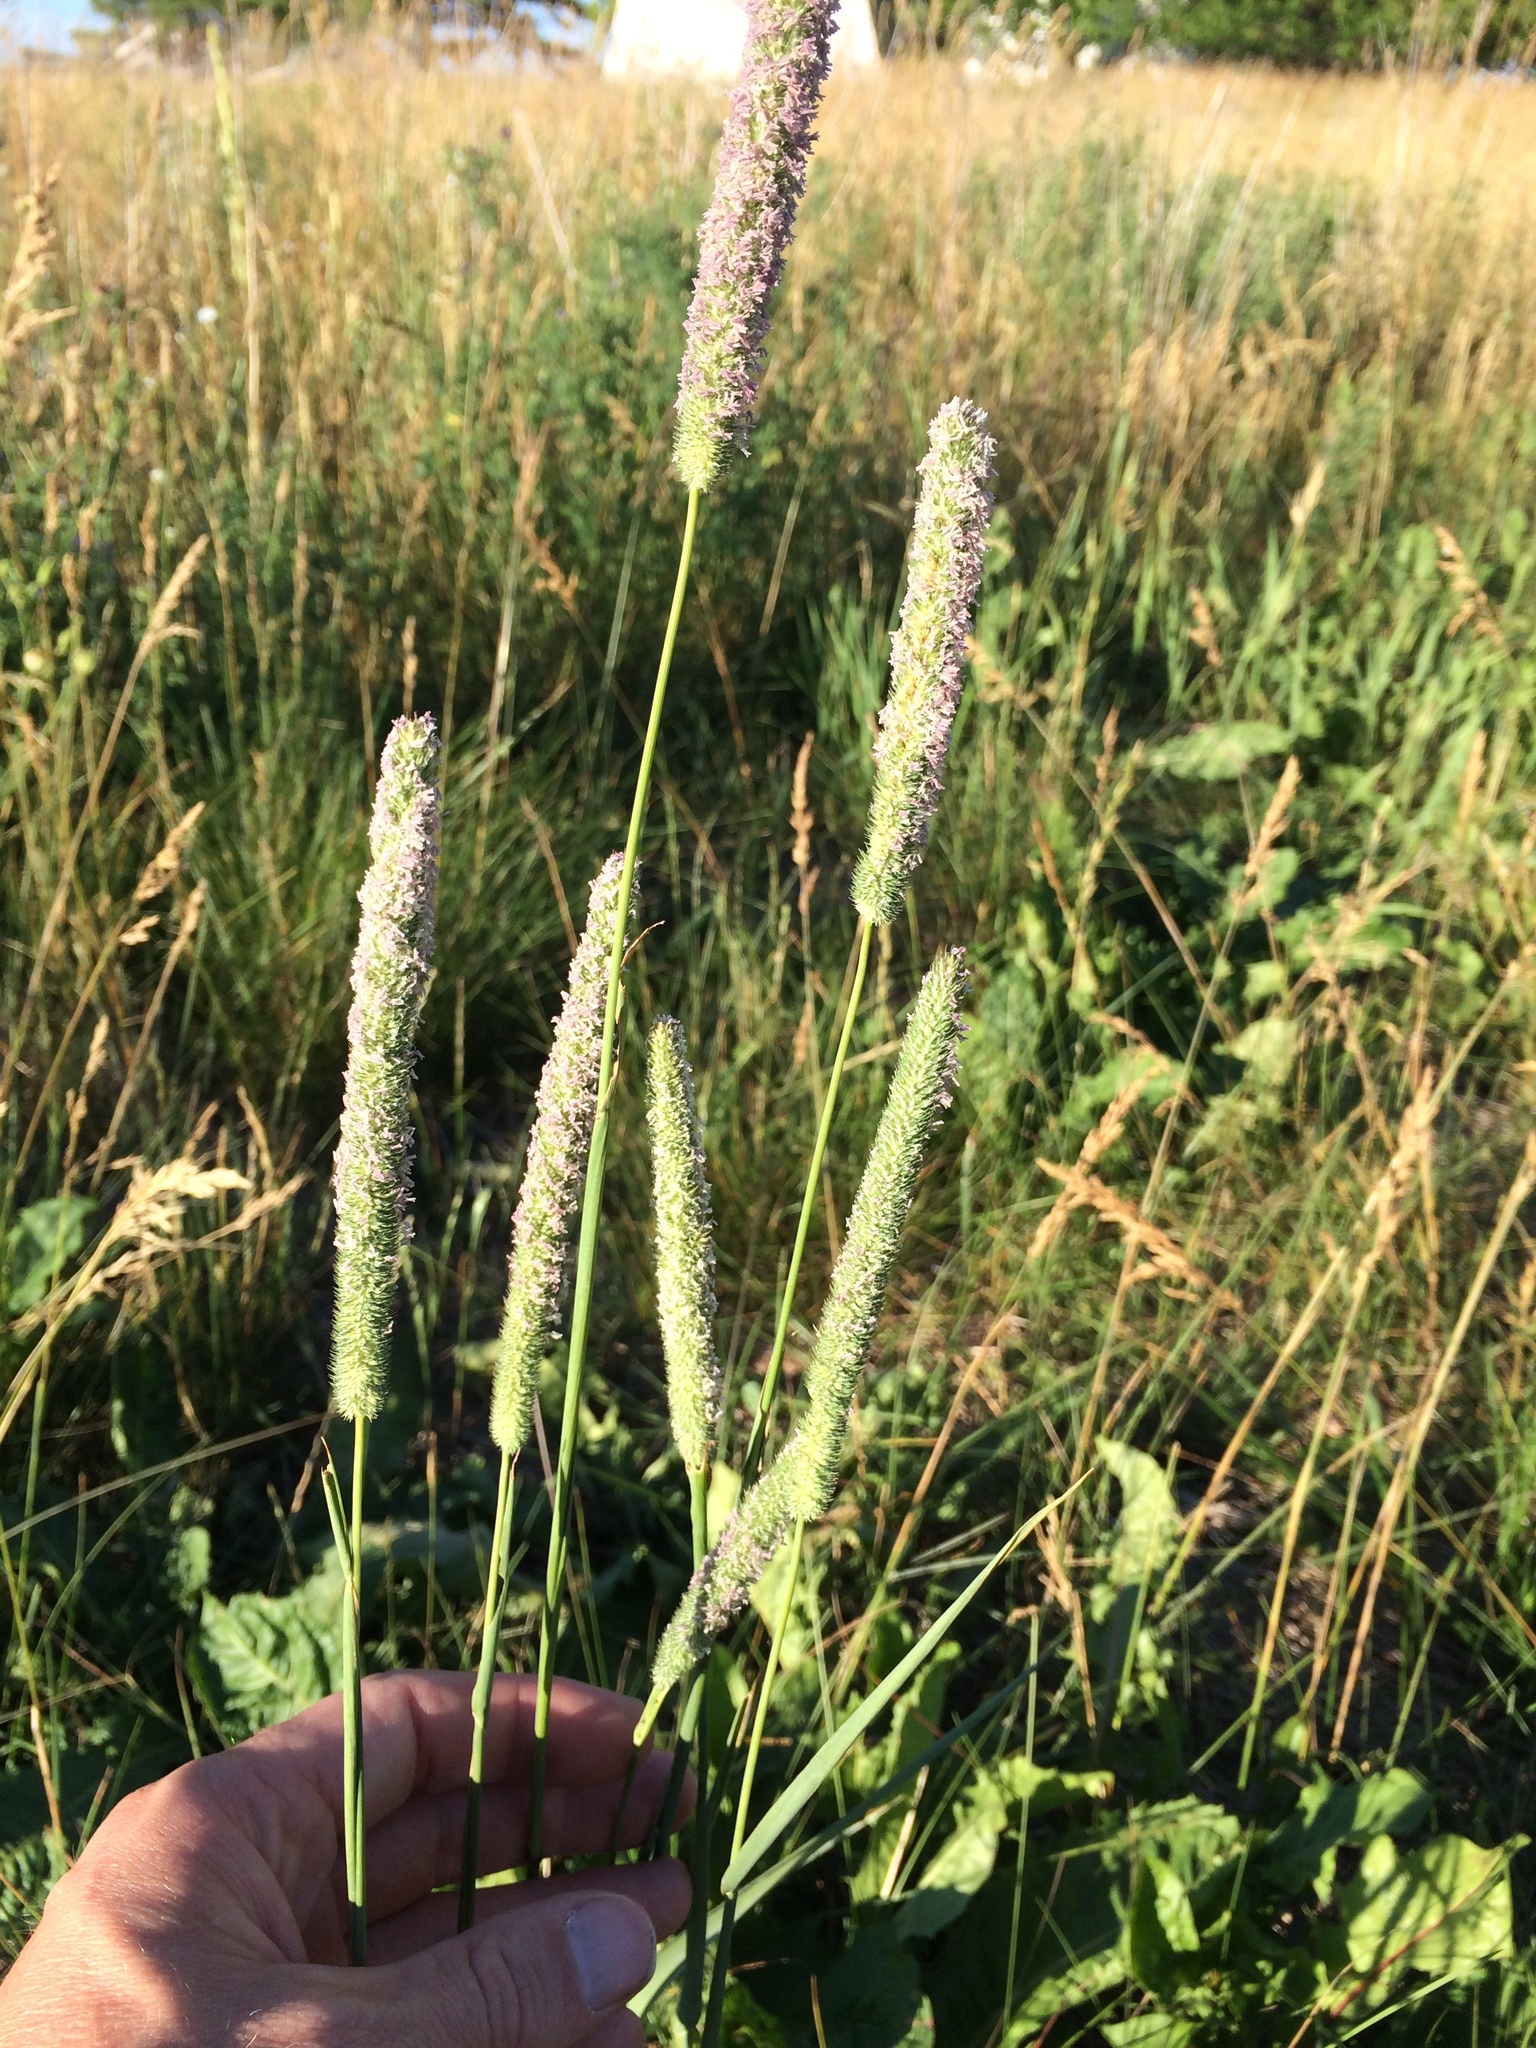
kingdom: Plantae
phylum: Tracheophyta
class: Liliopsida
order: Poales
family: Poaceae
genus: Phleum
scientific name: Phleum pratense
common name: Timothy grass
